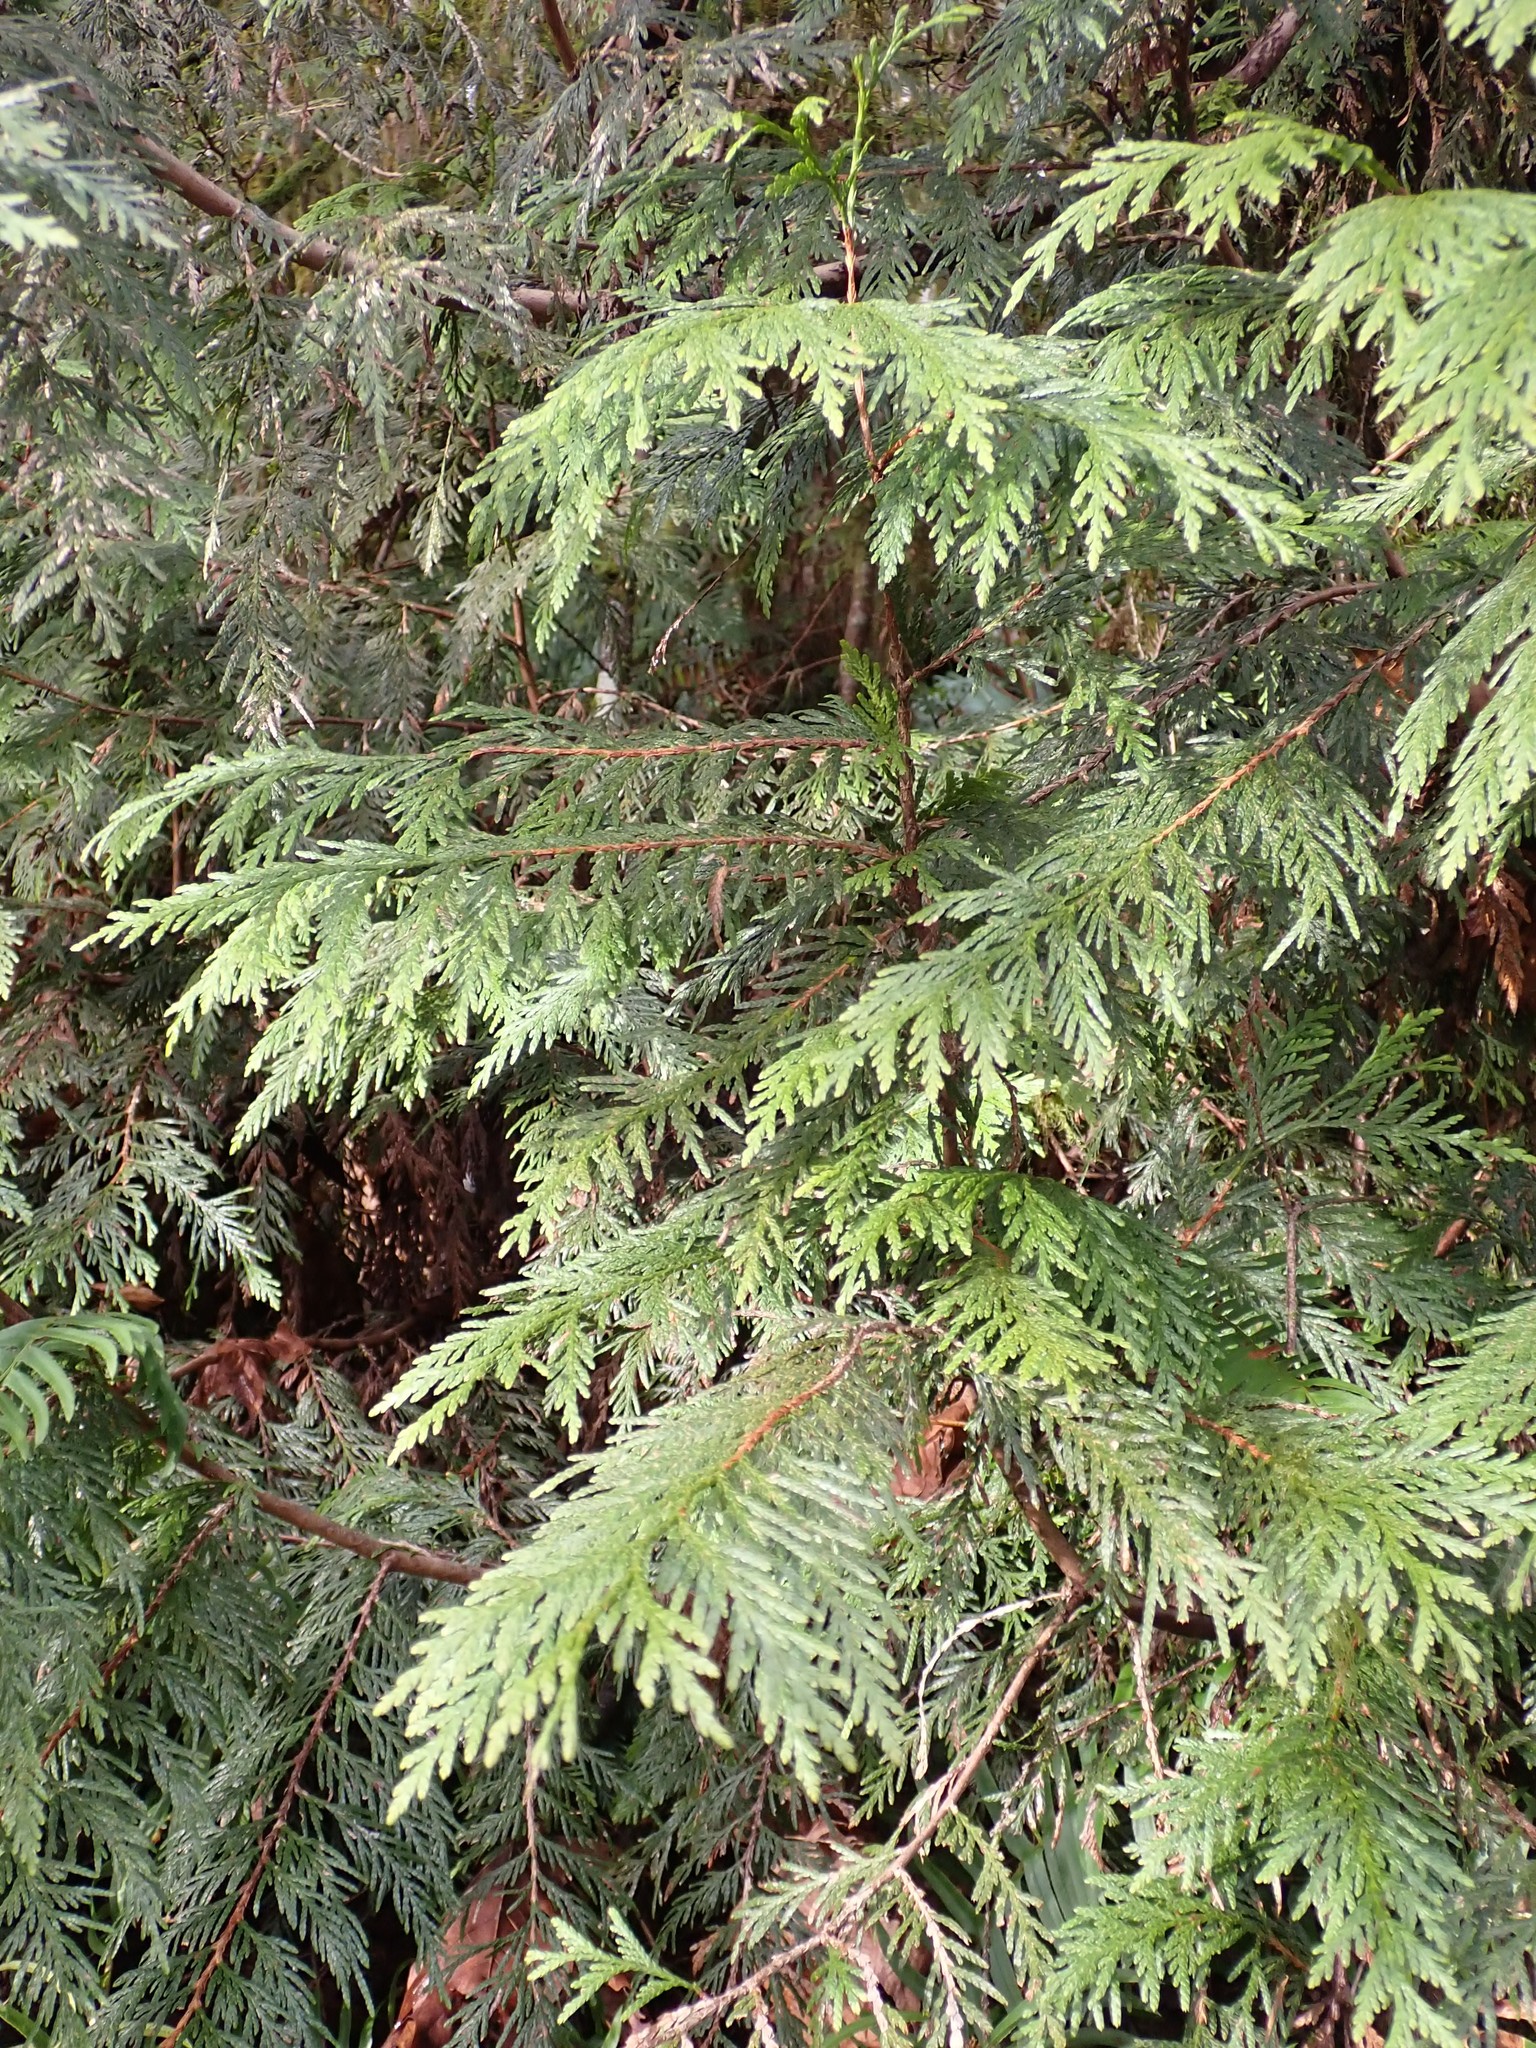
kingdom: Plantae
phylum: Tracheophyta
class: Pinopsida
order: Pinales
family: Cupressaceae
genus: Thuja
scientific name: Thuja plicata
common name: Western red-cedar
